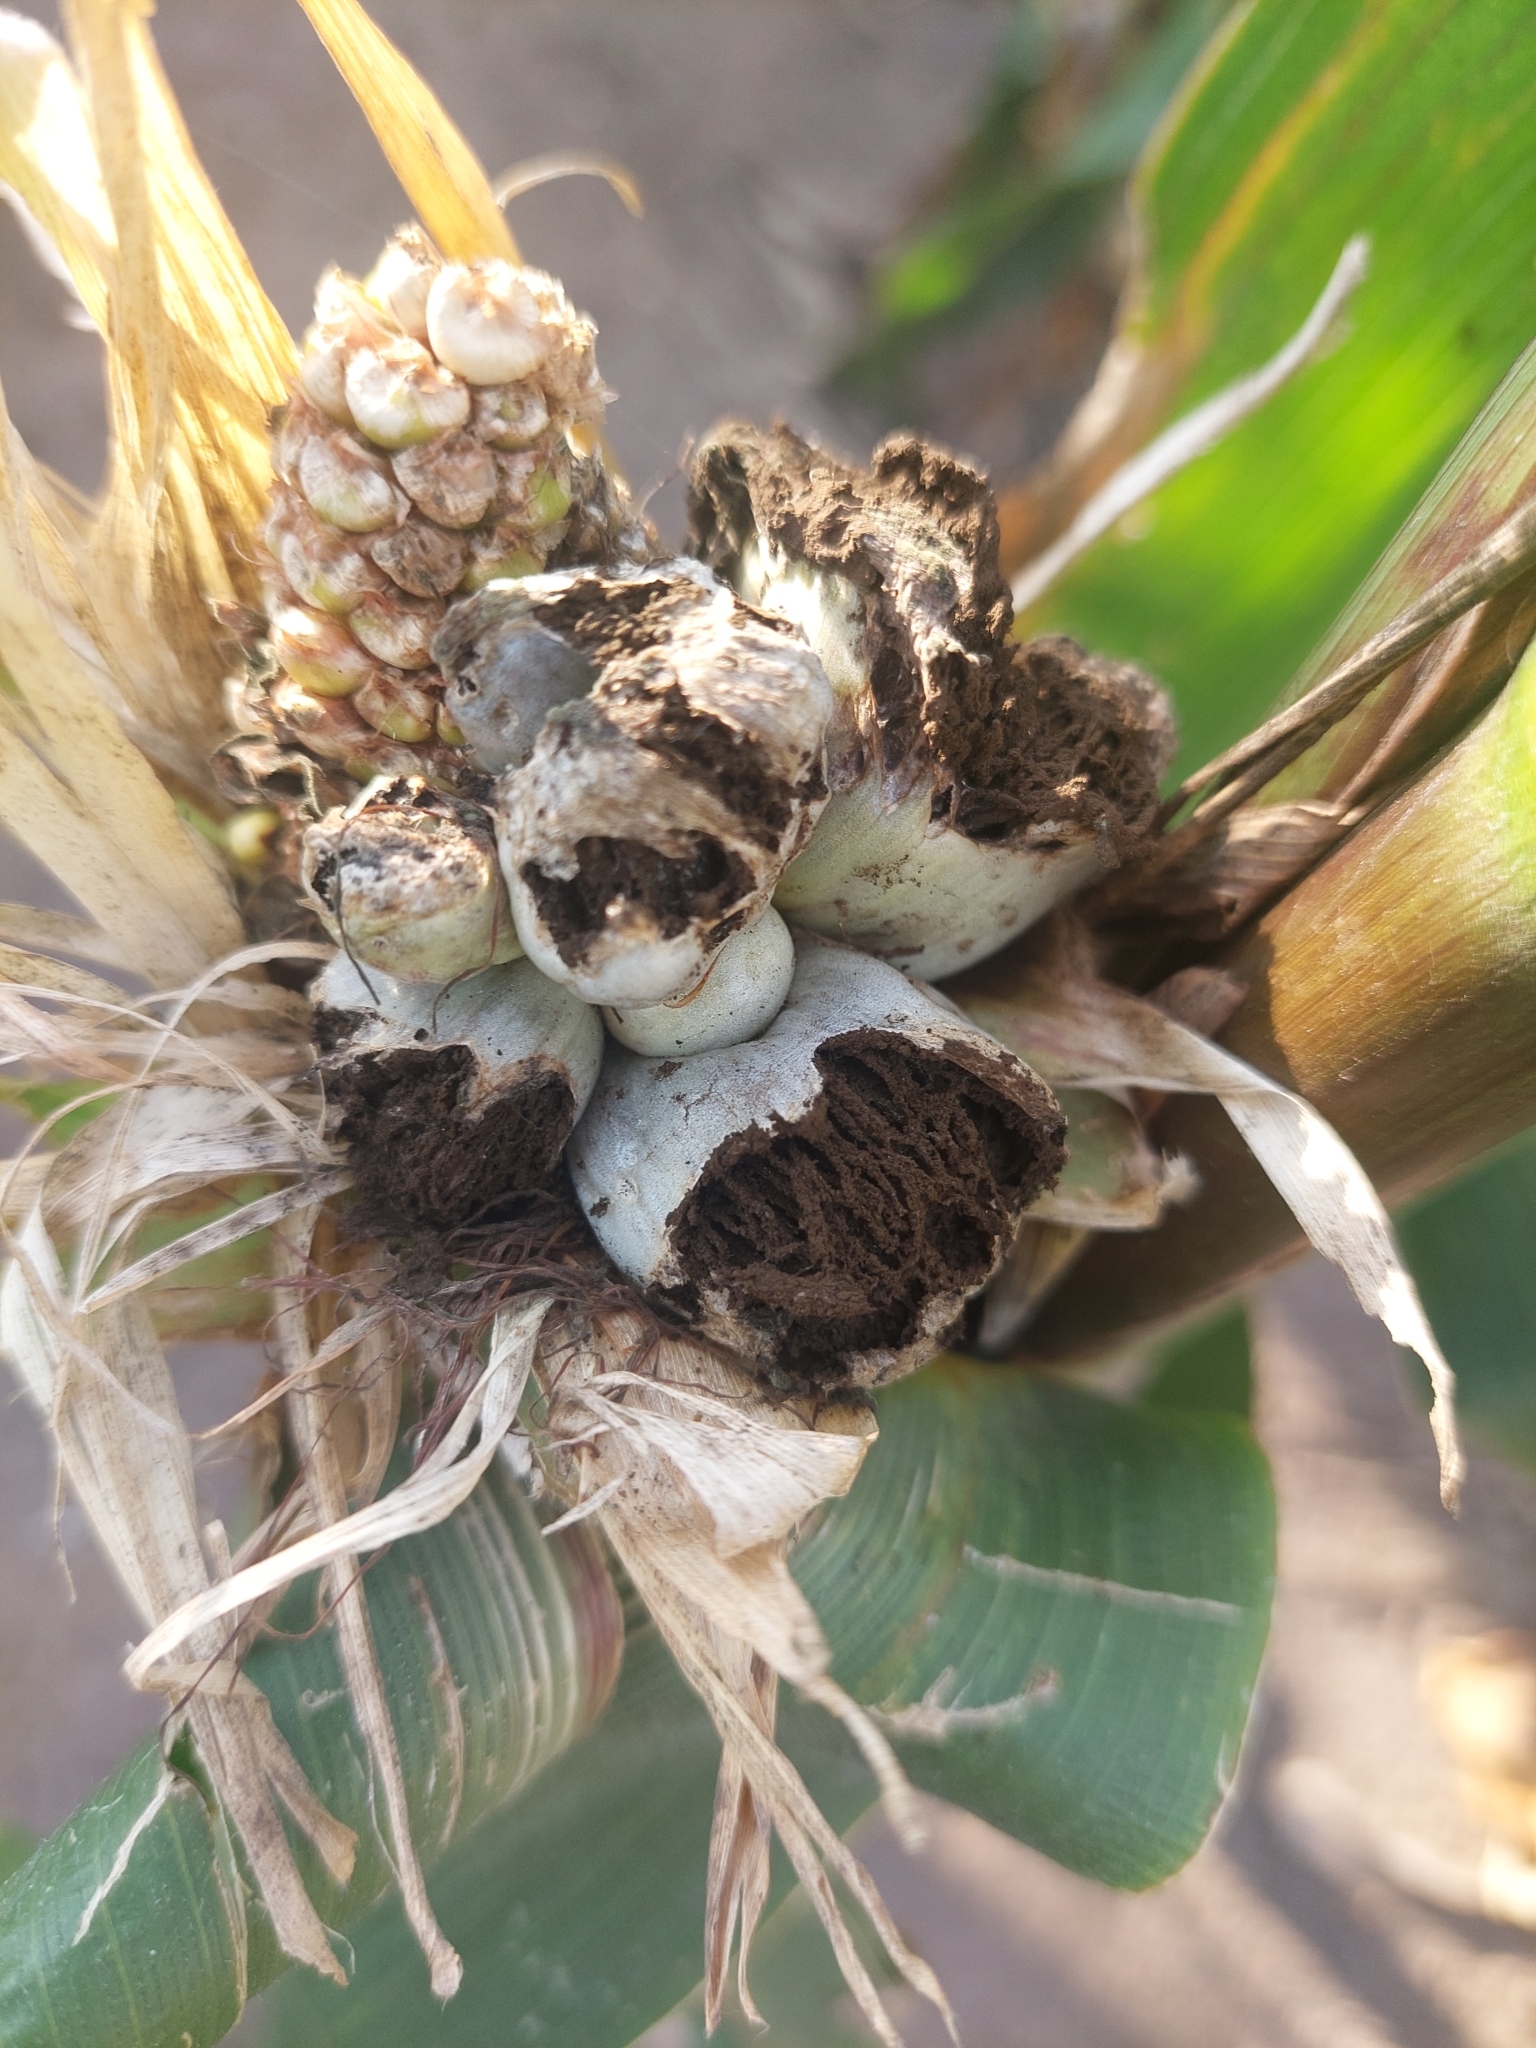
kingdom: Fungi
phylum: Basidiomycota
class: Ustilaginomycetes
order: Ustilaginales
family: Ustilaginaceae
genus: Mycosarcoma
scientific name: Mycosarcoma maydis
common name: Corn smut
